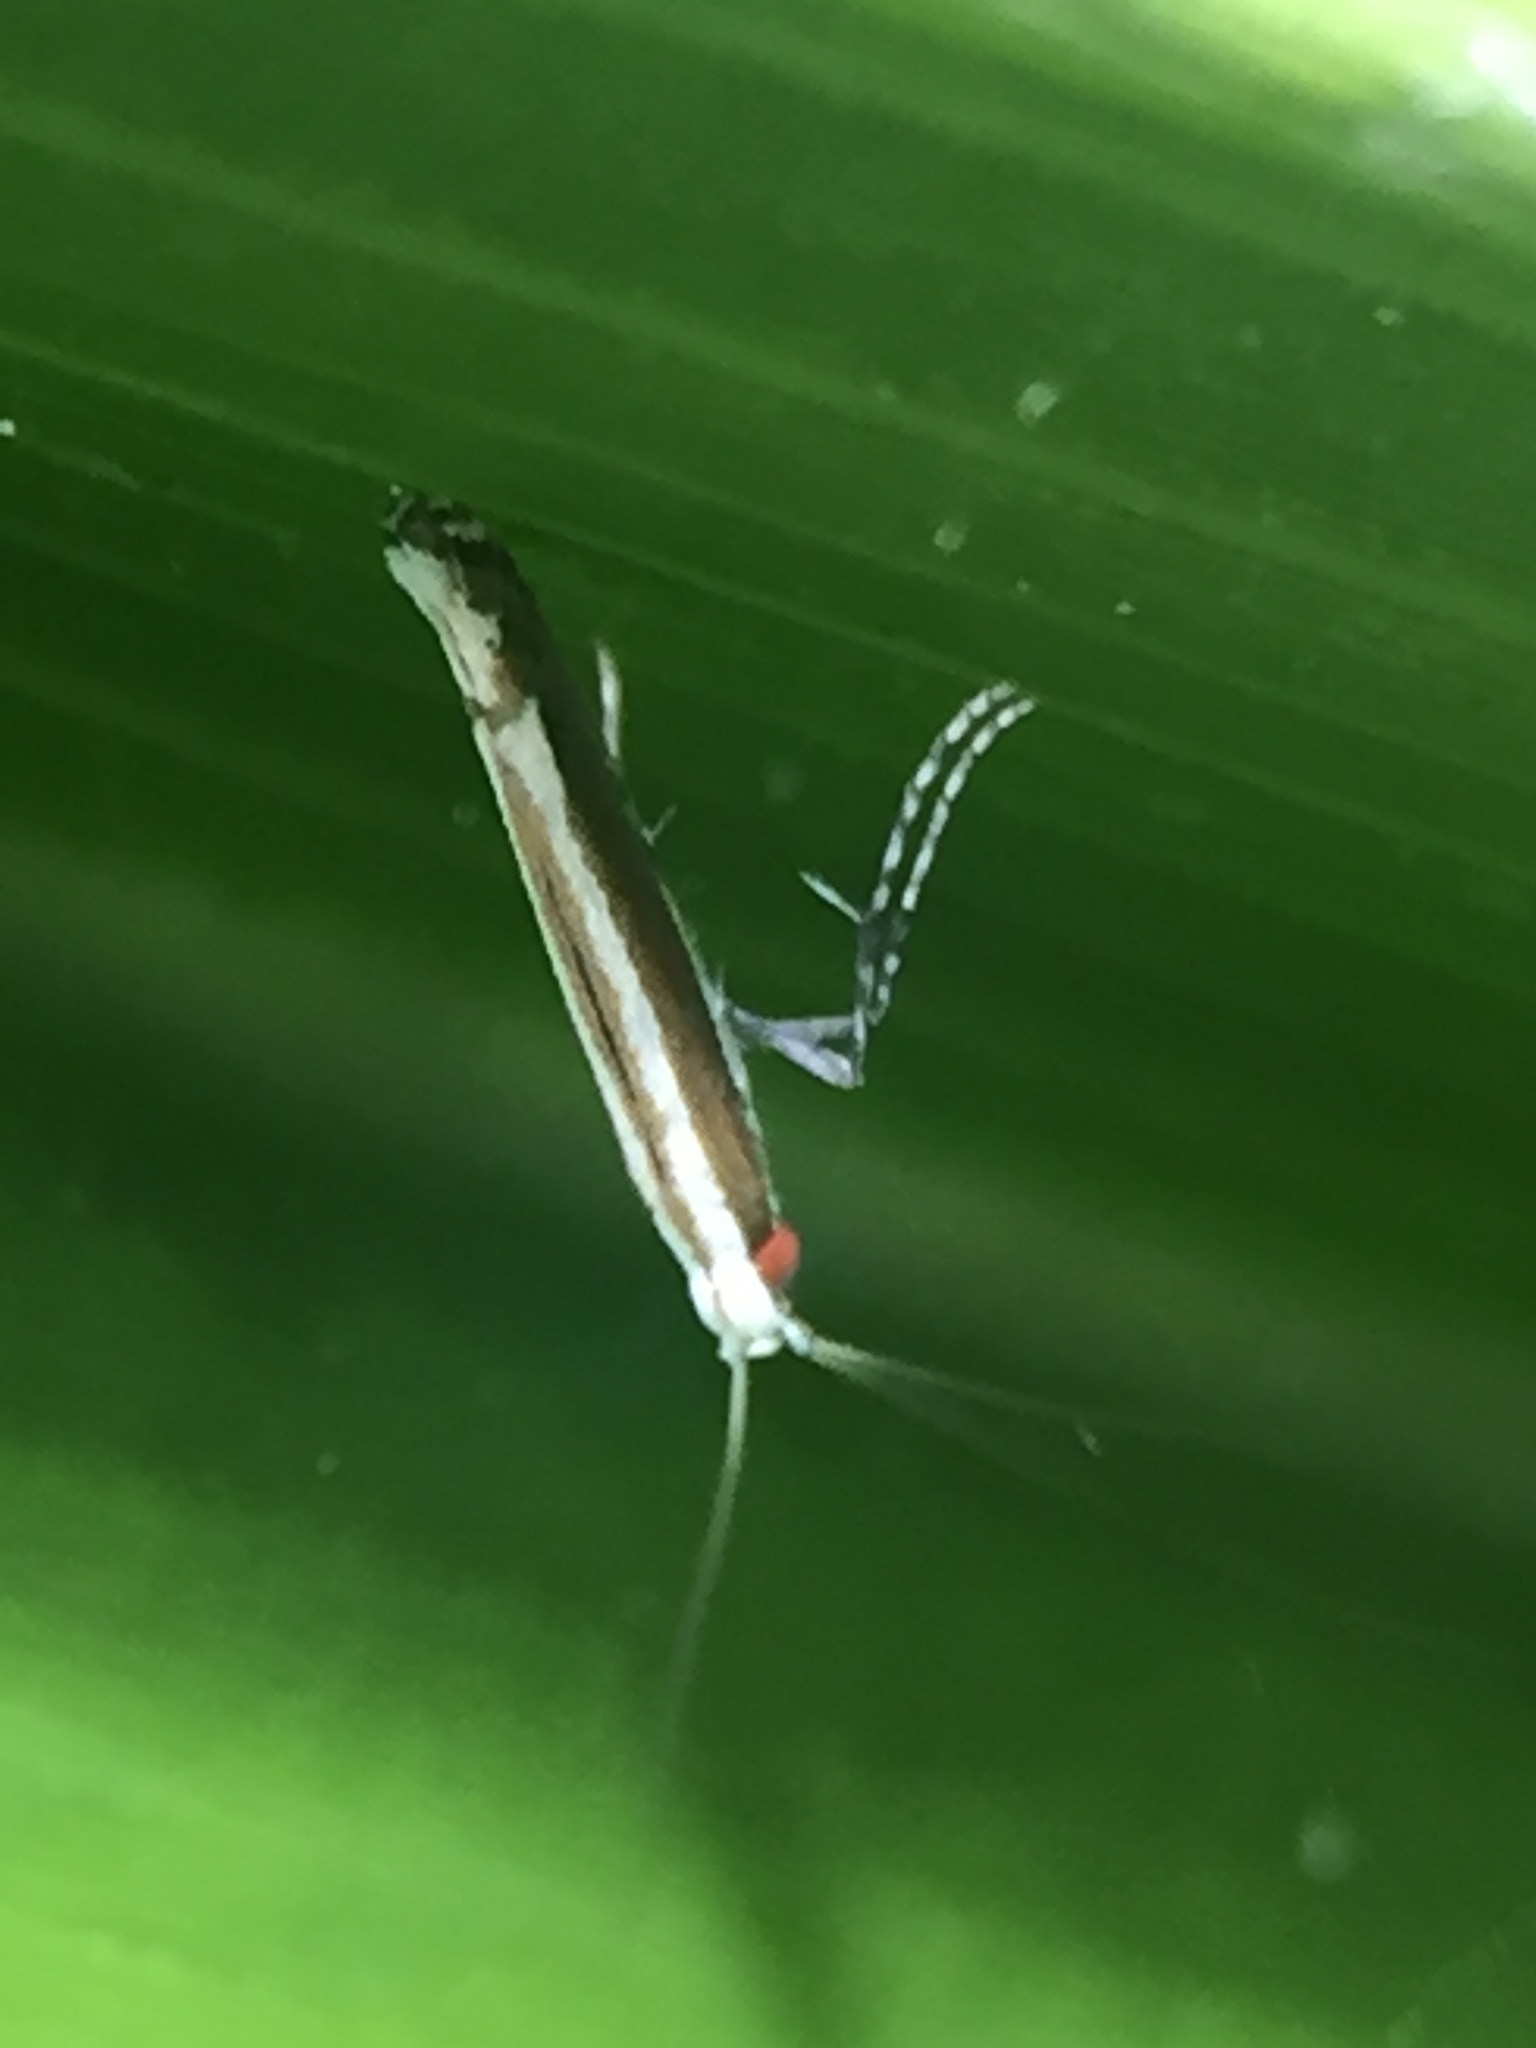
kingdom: Animalia
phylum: Arthropoda
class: Insecta
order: Lepidoptera
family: Gracillariidae
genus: Acrocercops
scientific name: Acrocercops laciniella
